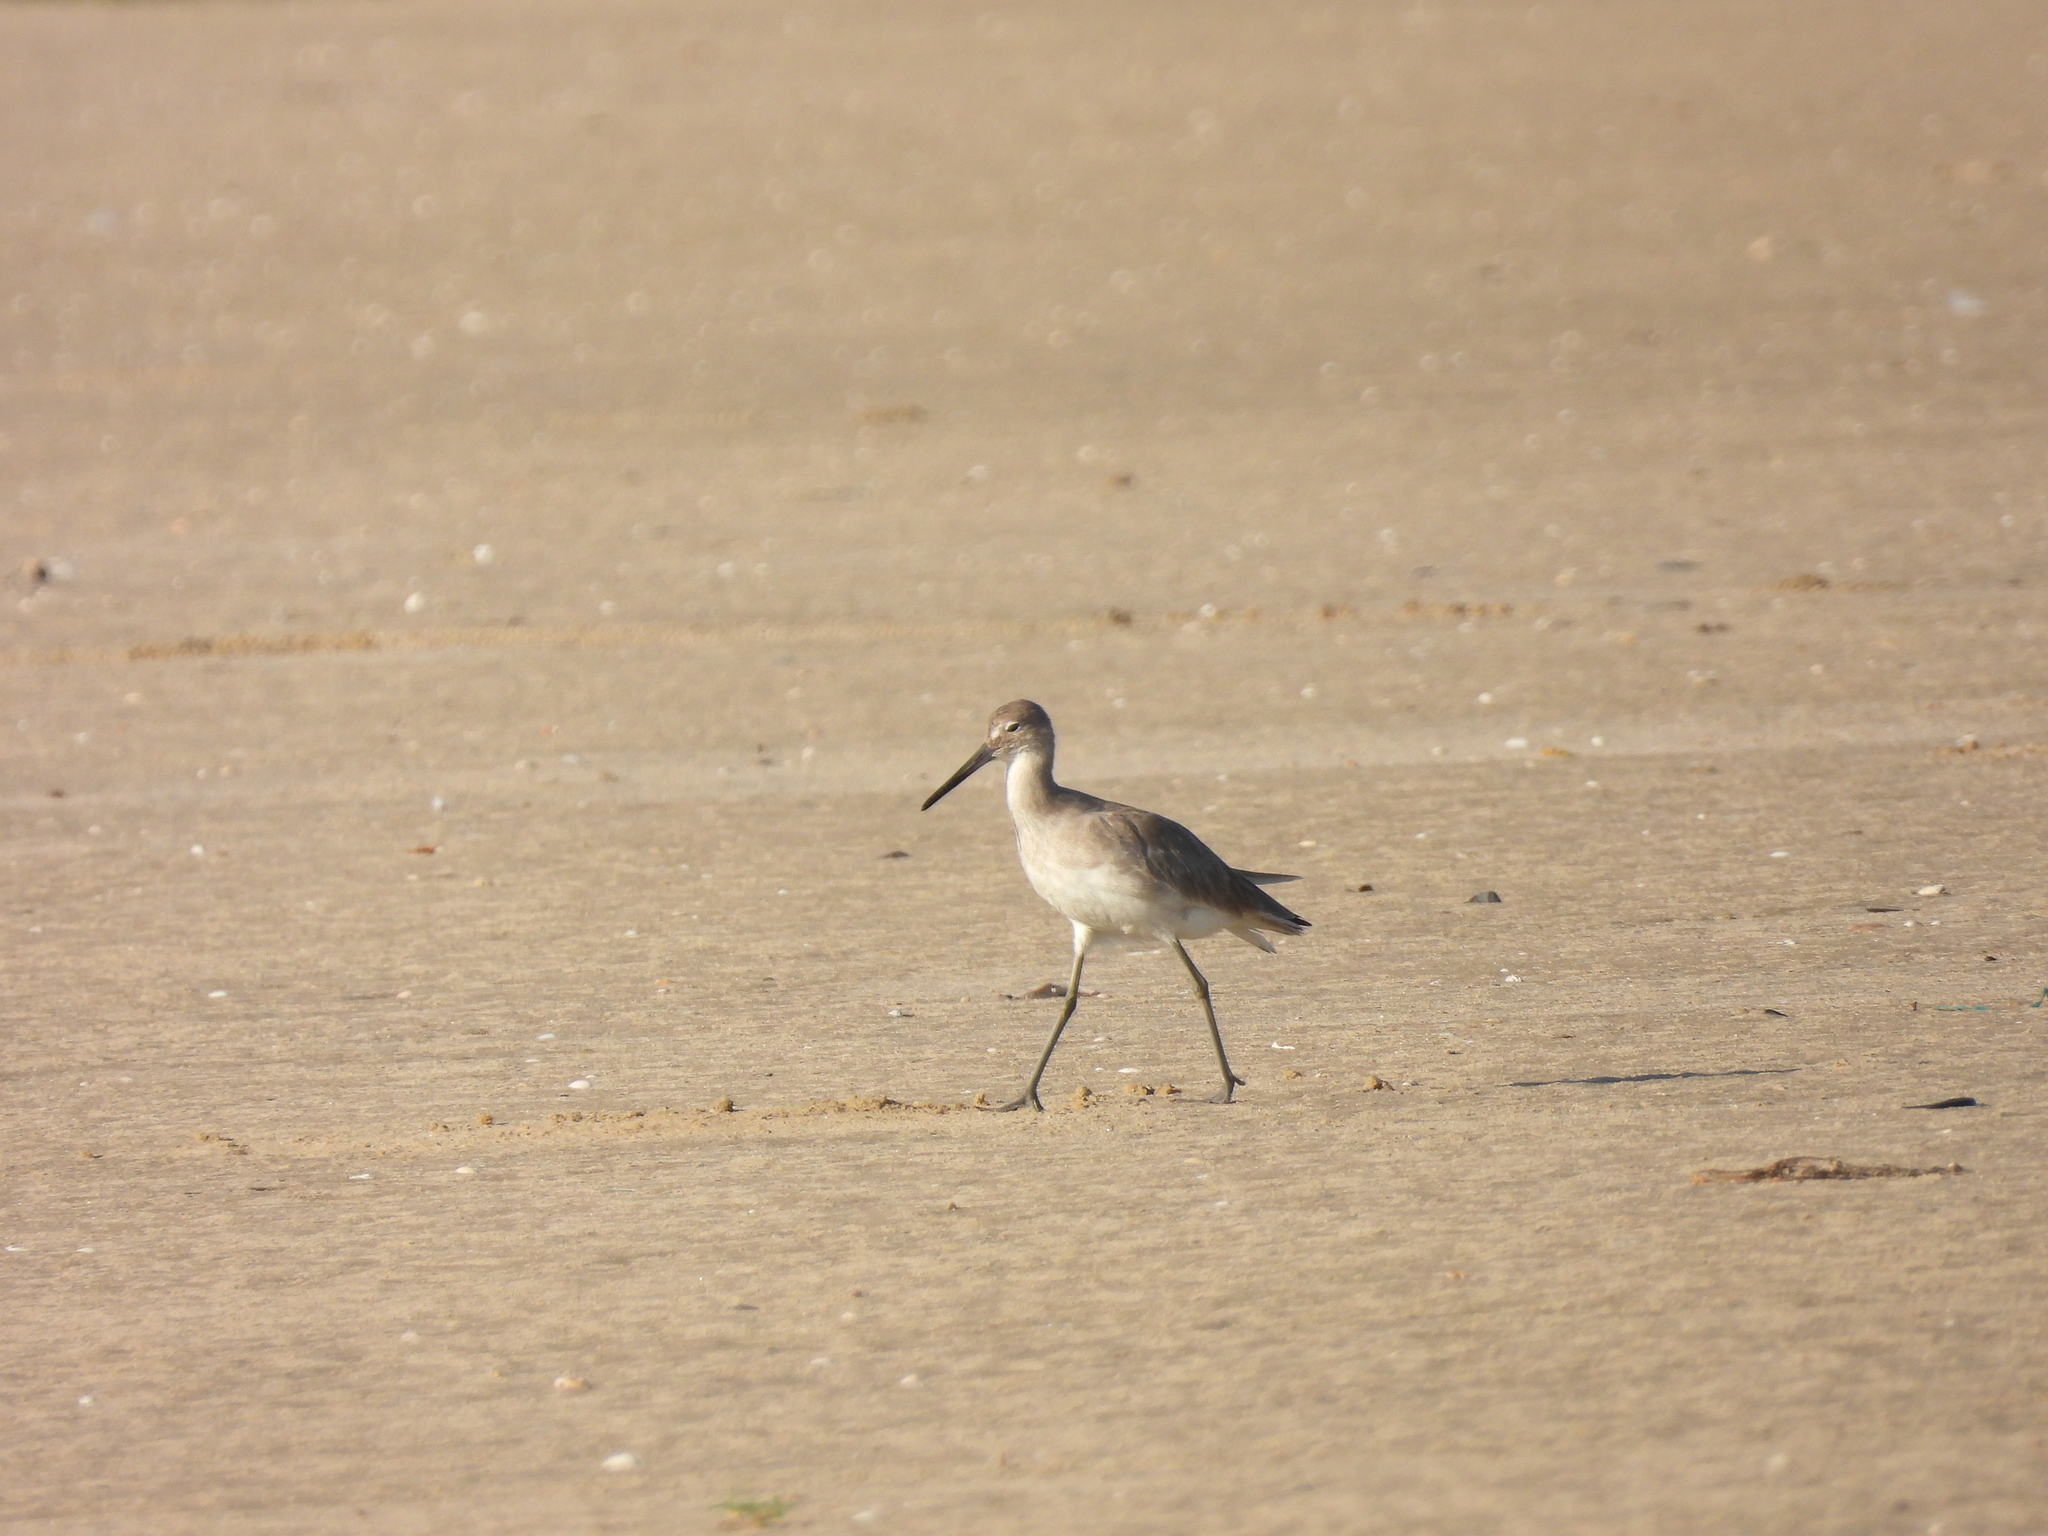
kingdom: Animalia
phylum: Chordata
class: Aves
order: Charadriiformes
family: Scolopacidae
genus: Tringa
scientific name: Tringa semipalmata
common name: Willet
